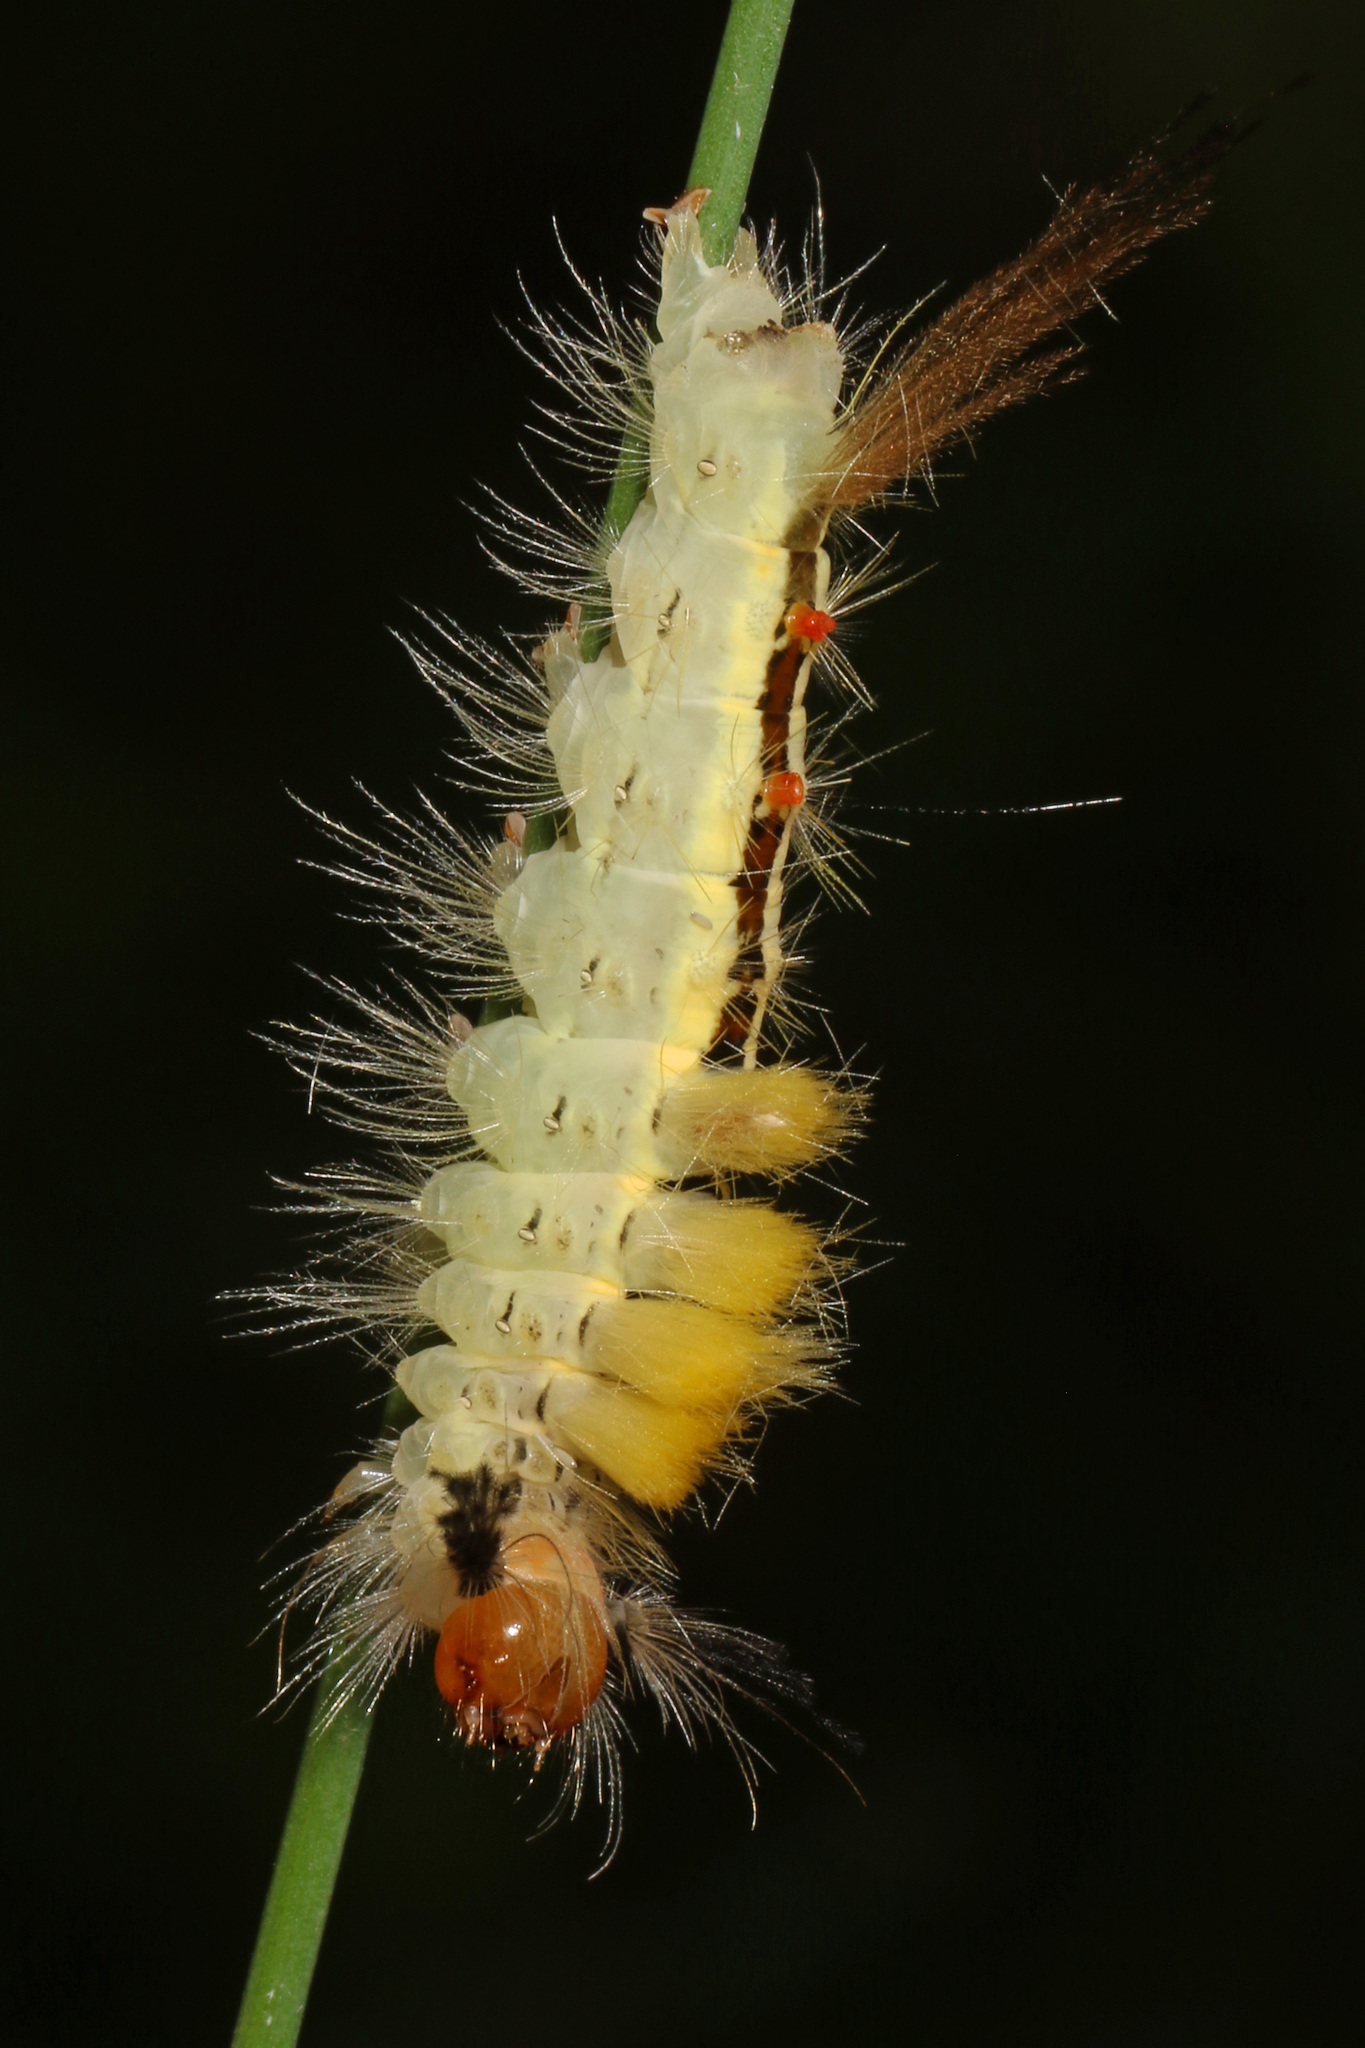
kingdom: Animalia
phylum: Arthropoda
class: Insecta
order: Lepidoptera
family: Erebidae
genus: Orgyia
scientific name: Orgyia leucostigma
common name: White-marked tussock moth
